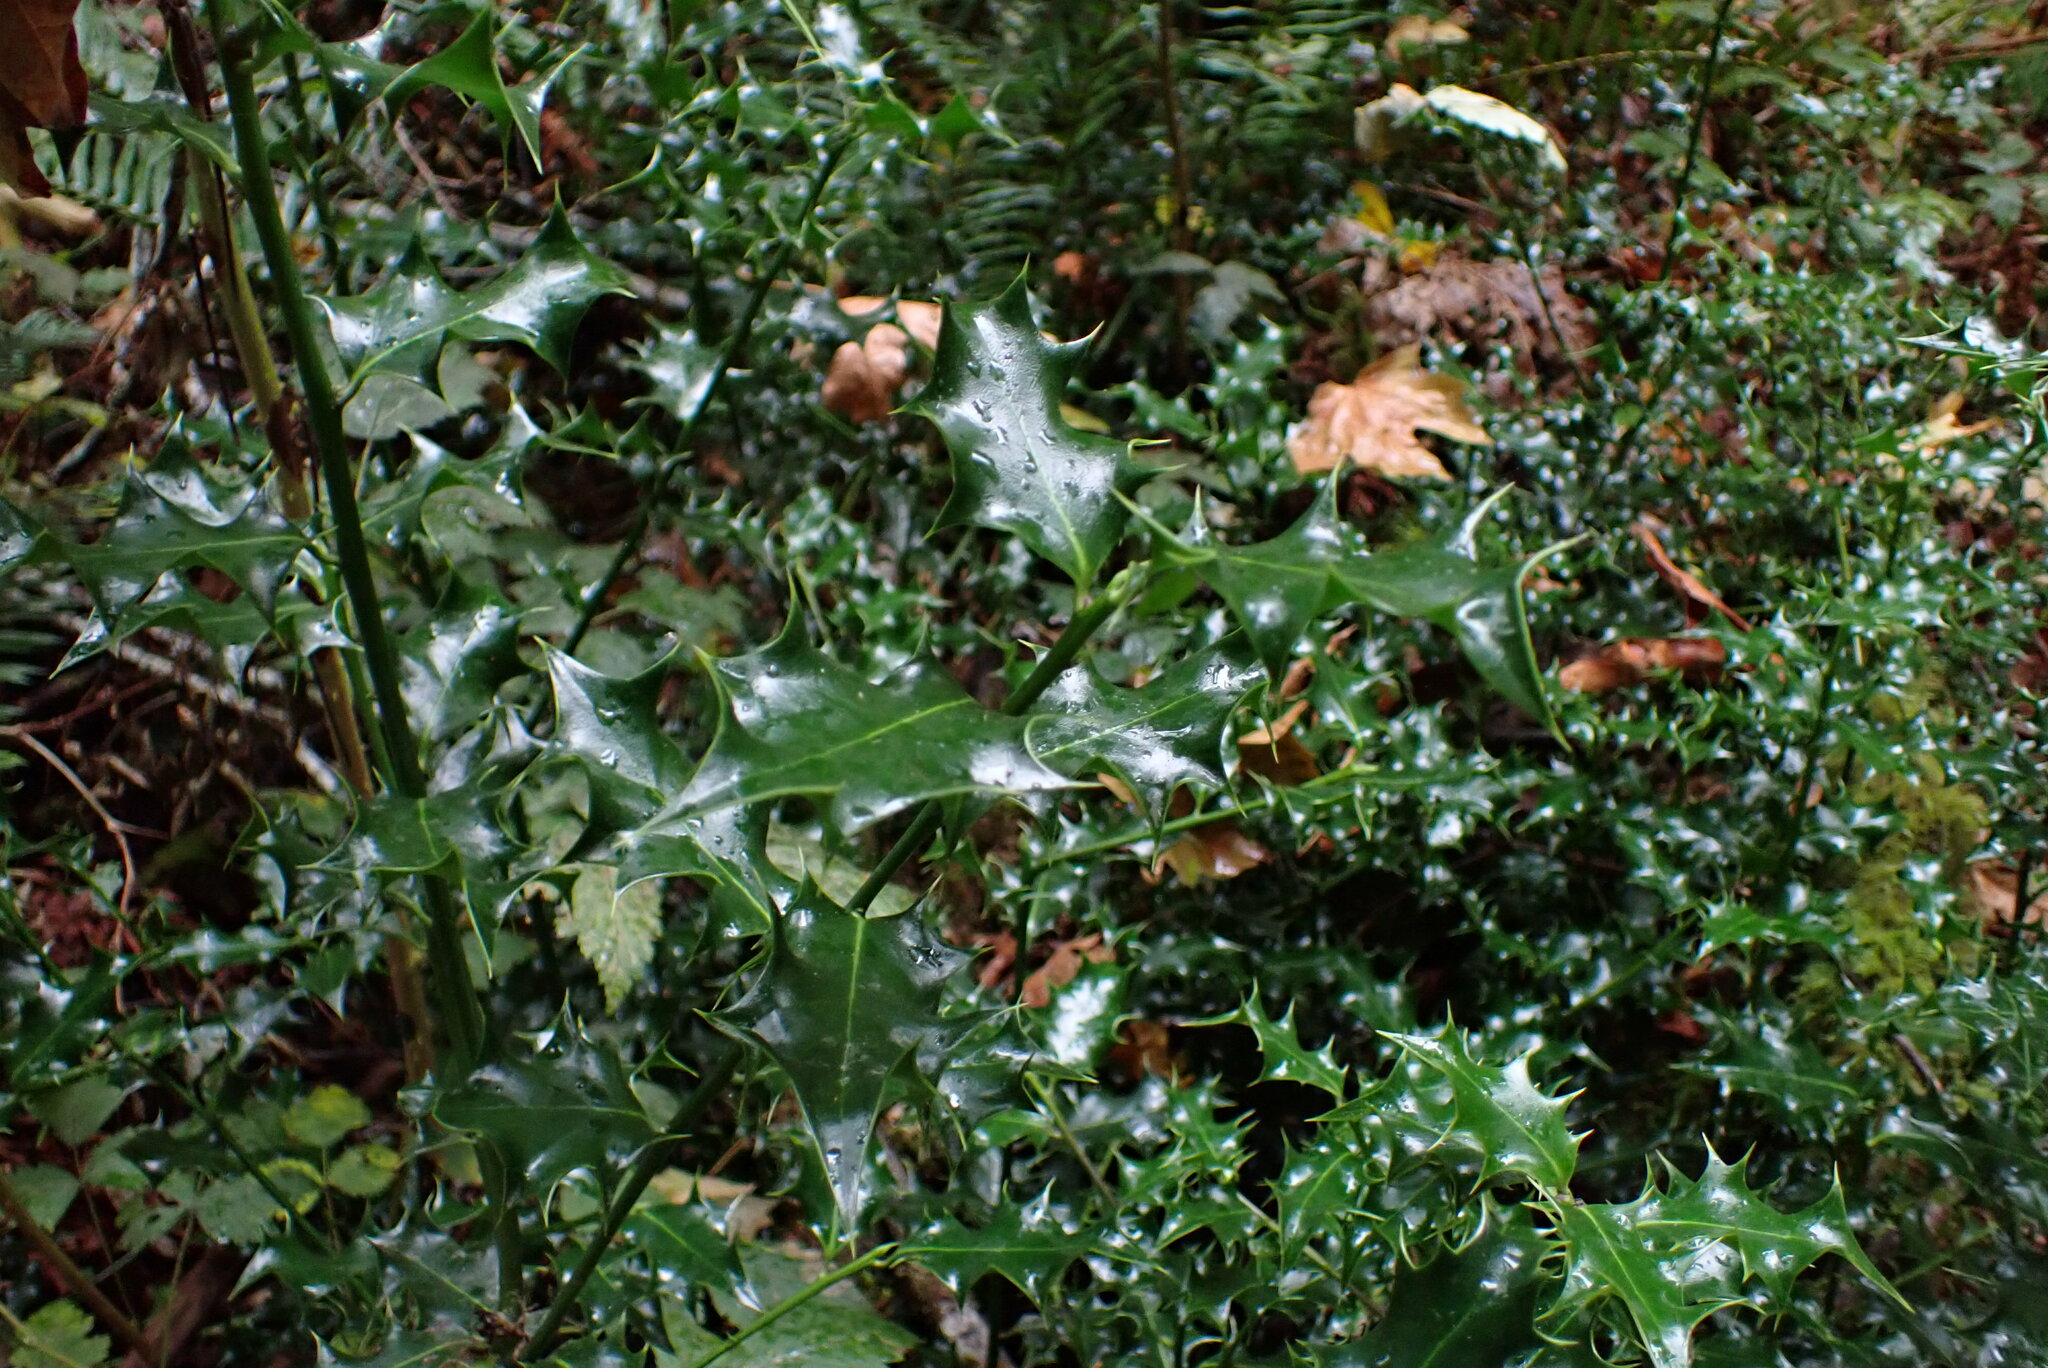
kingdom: Plantae
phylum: Tracheophyta
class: Magnoliopsida
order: Aquifoliales
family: Aquifoliaceae
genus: Ilex
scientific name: Ilex aquifolium
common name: English holly
